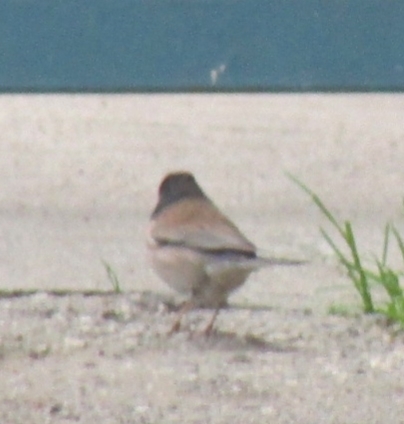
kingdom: Animalia
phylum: Chordata
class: Aves
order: Passeriformes
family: Passerellidae
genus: Junco
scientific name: Junco hyemalis
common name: Dark-eyed junco
